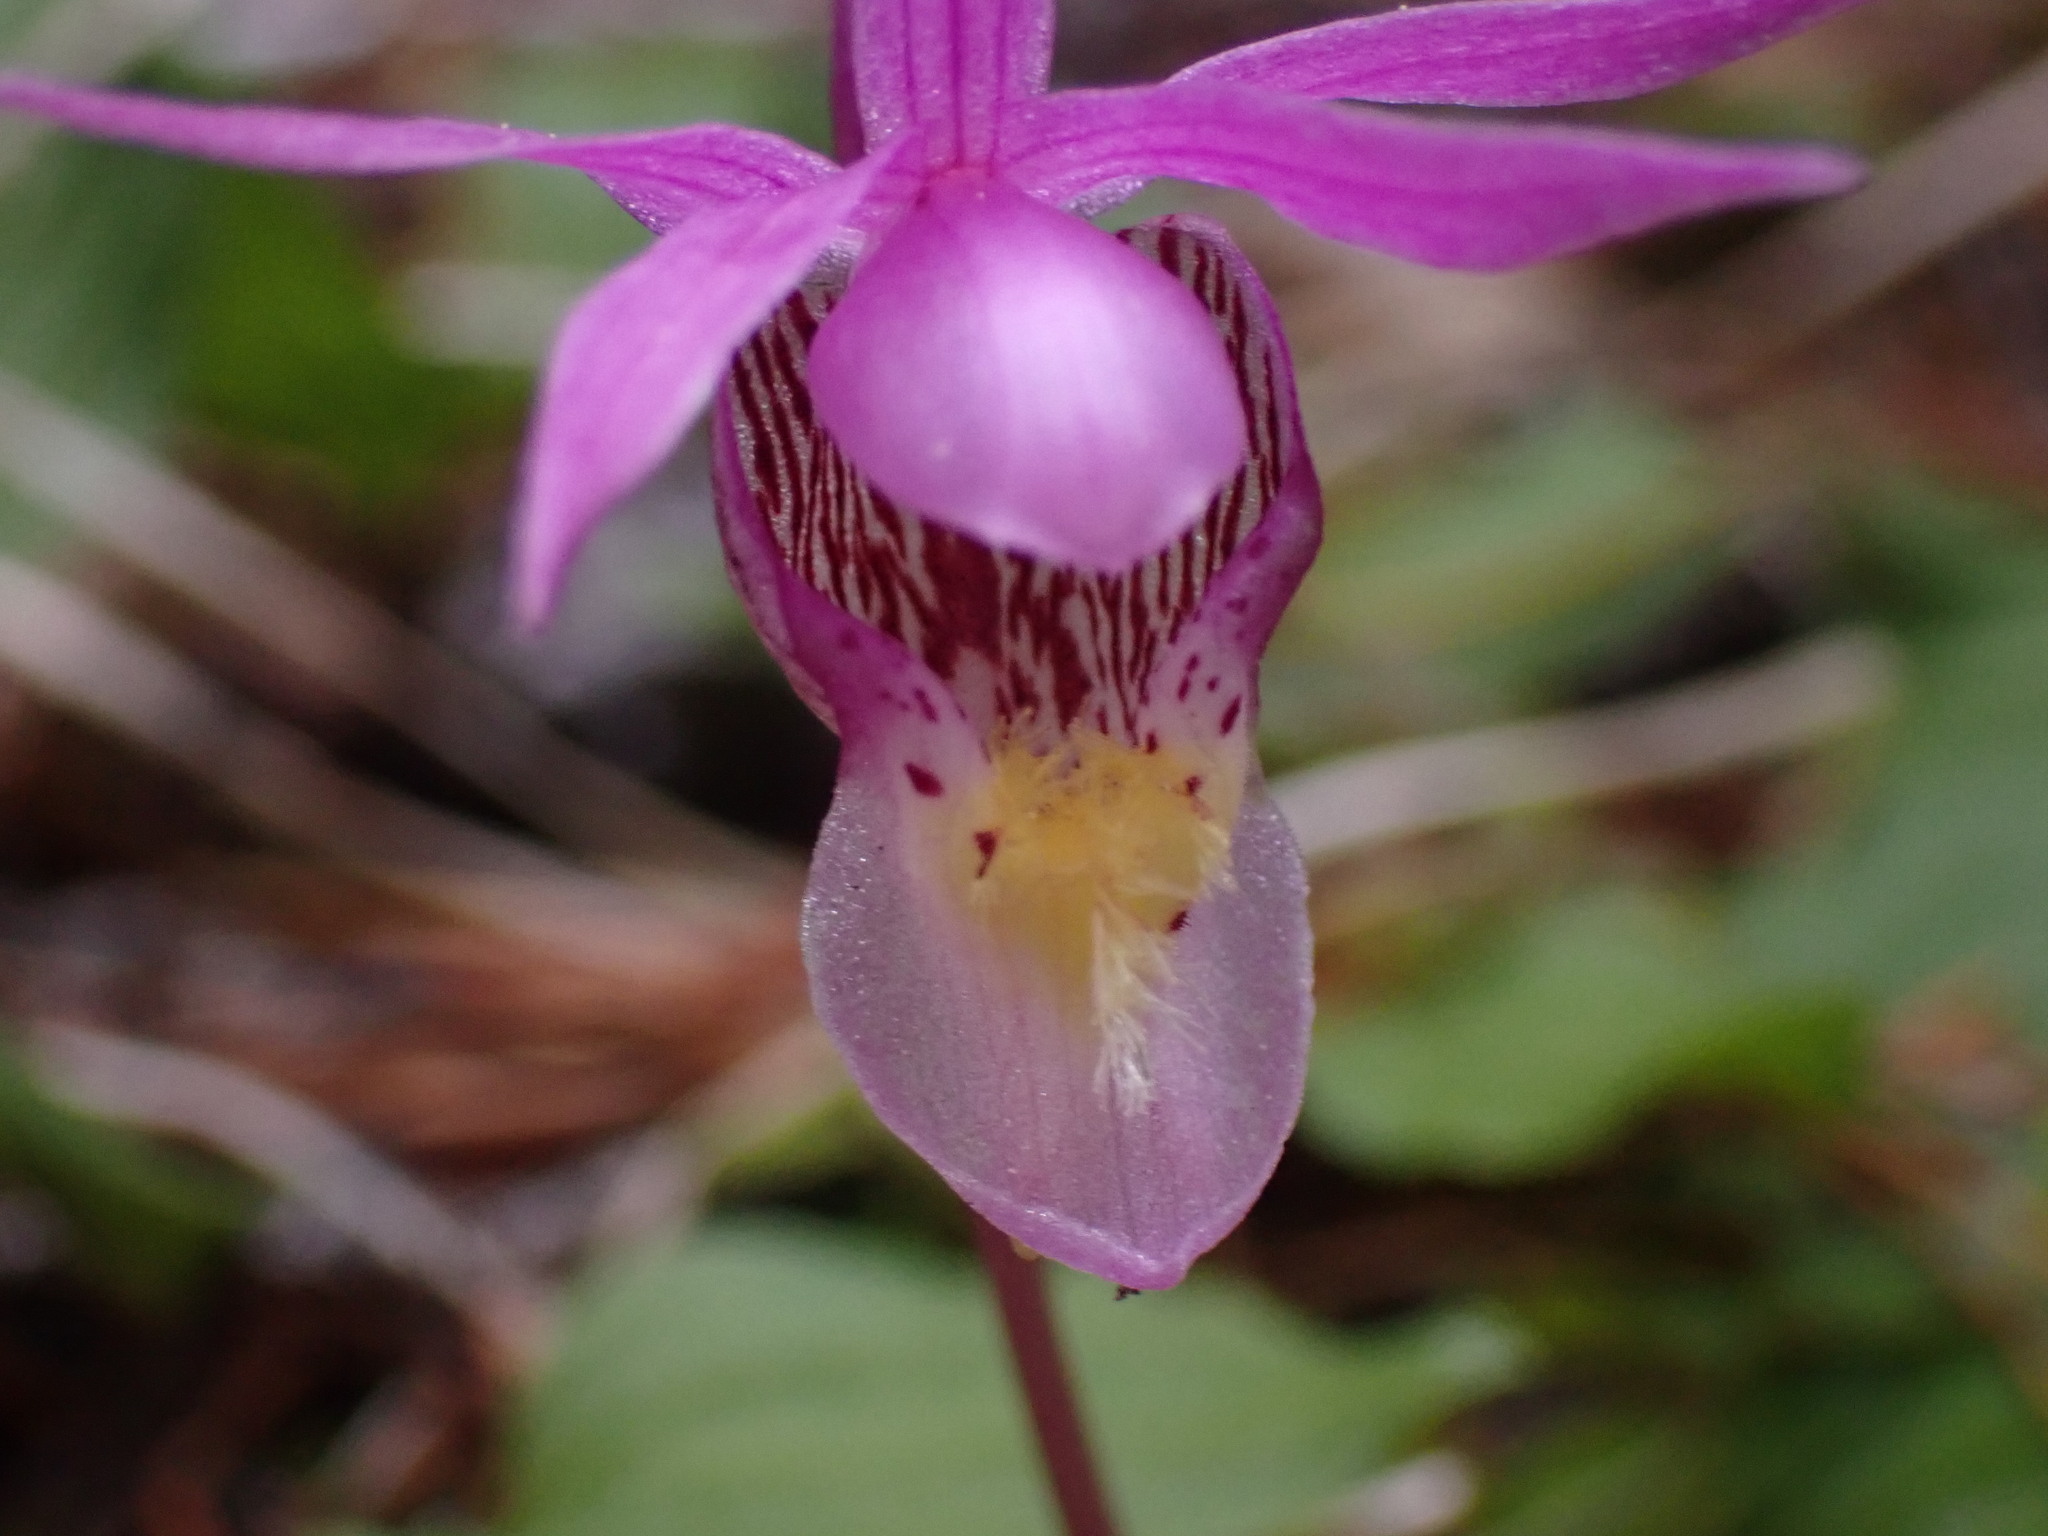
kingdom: Plantae
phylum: Tracheophyta
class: Liliopsida
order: Asparagales
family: Orchidaceae
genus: Calypso
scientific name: Calypso bulbosa
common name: Calypso
